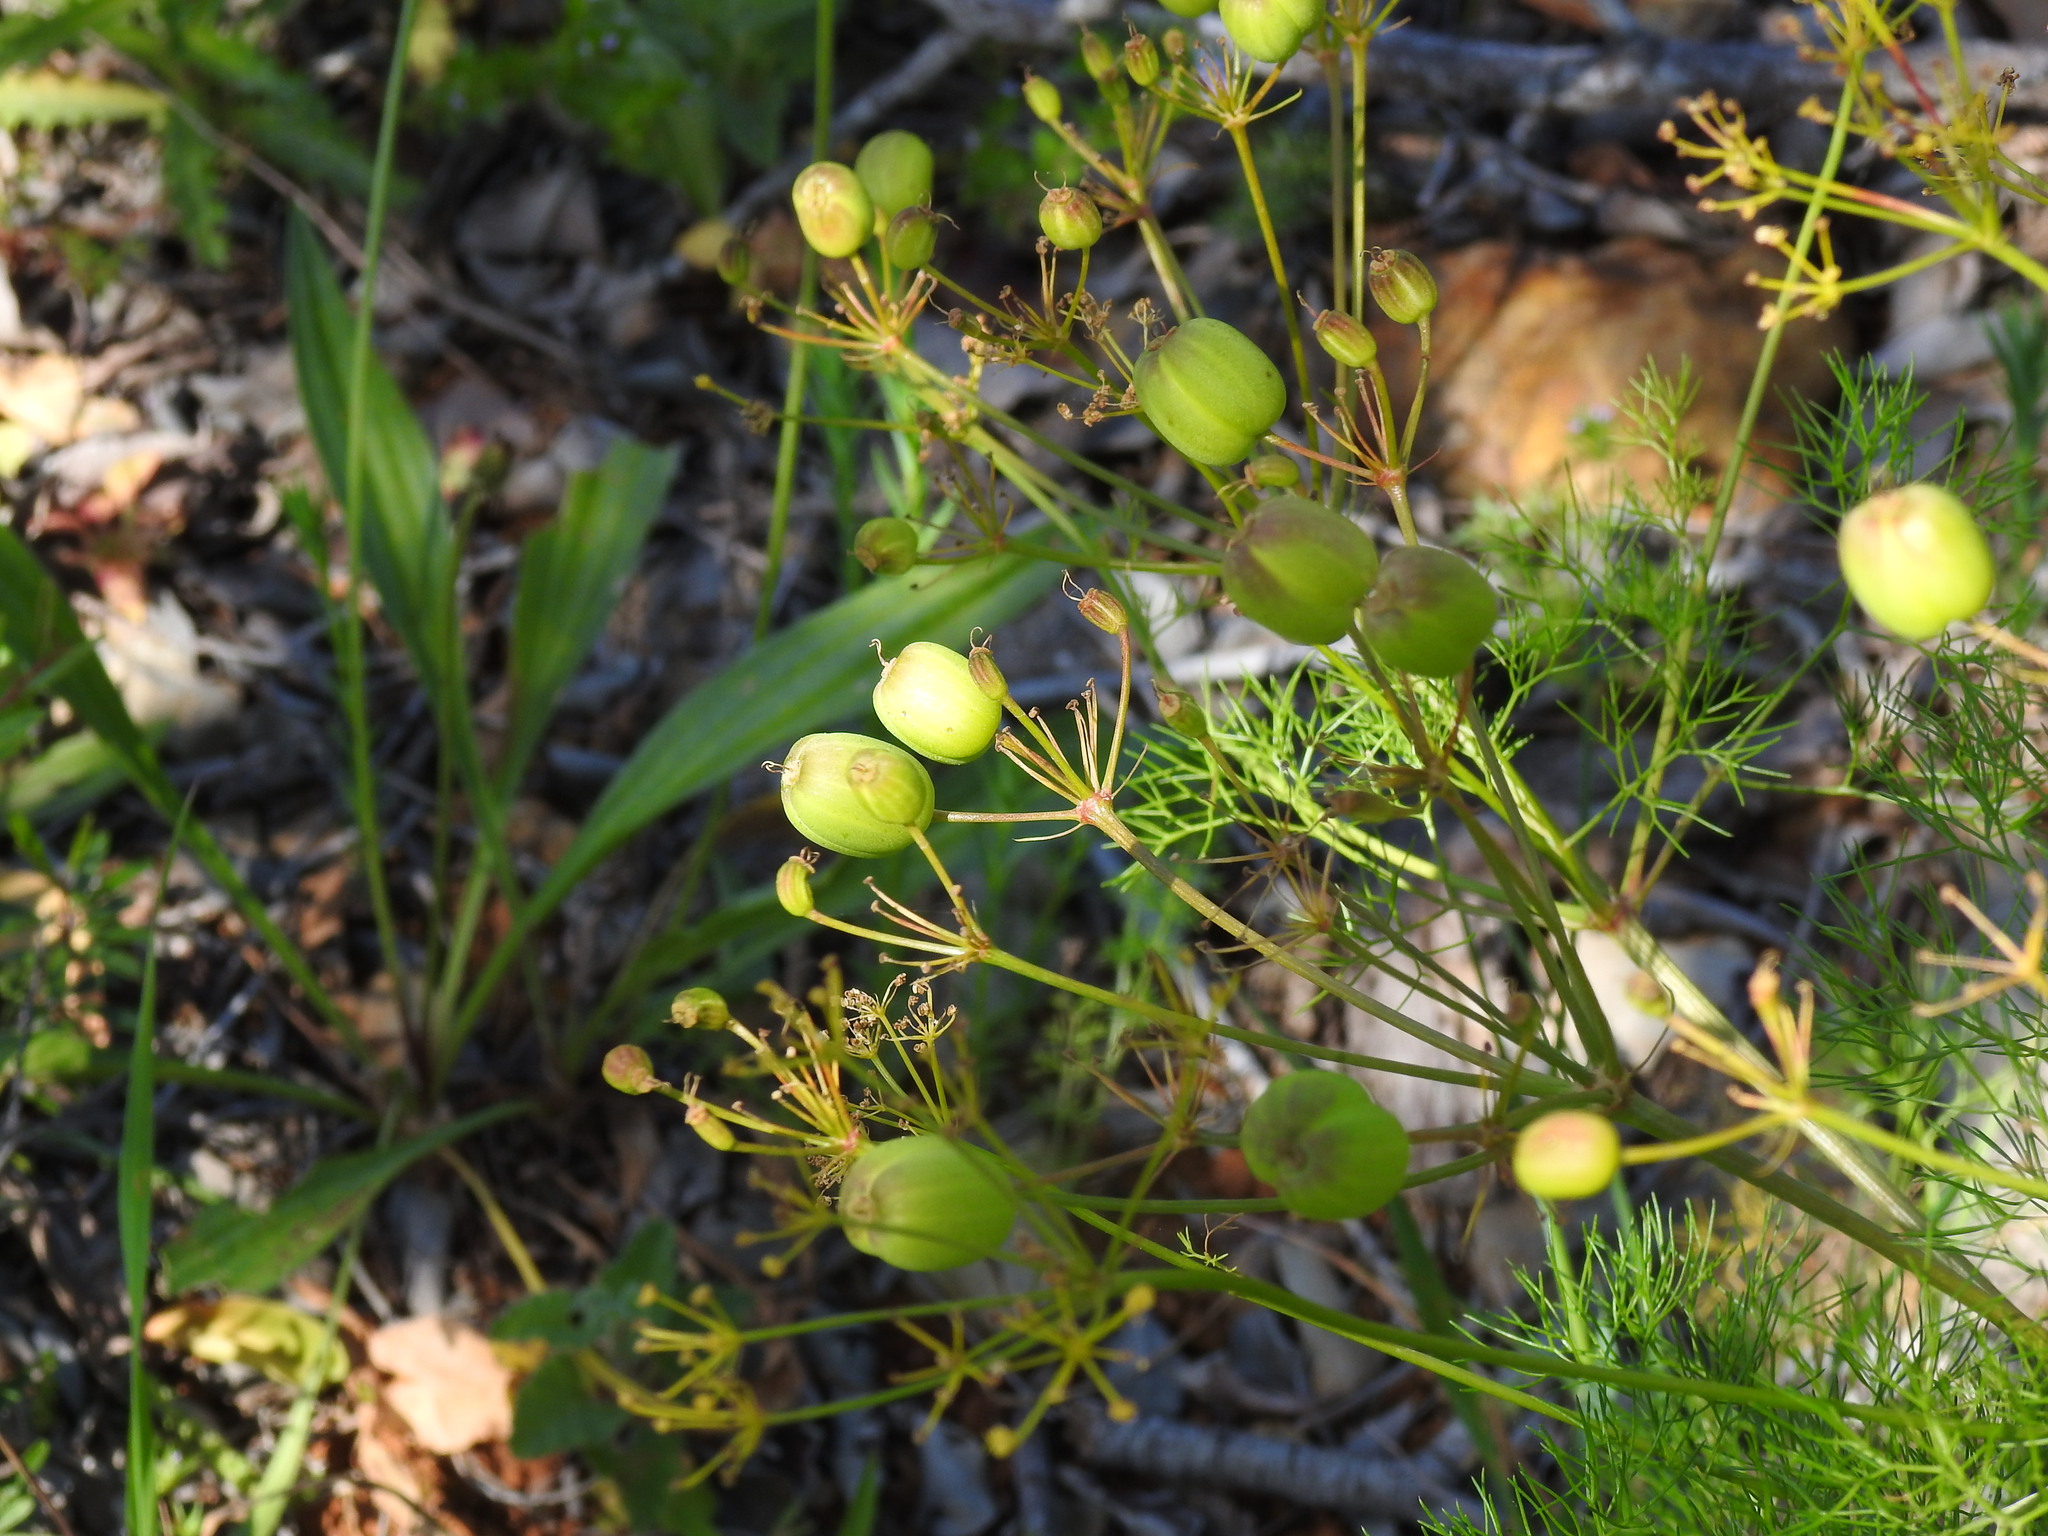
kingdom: Plantae
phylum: Tracheophyta
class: Magnoliopsida
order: Apiales
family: Apiaceae
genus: Prangos
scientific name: Prangos trifida
